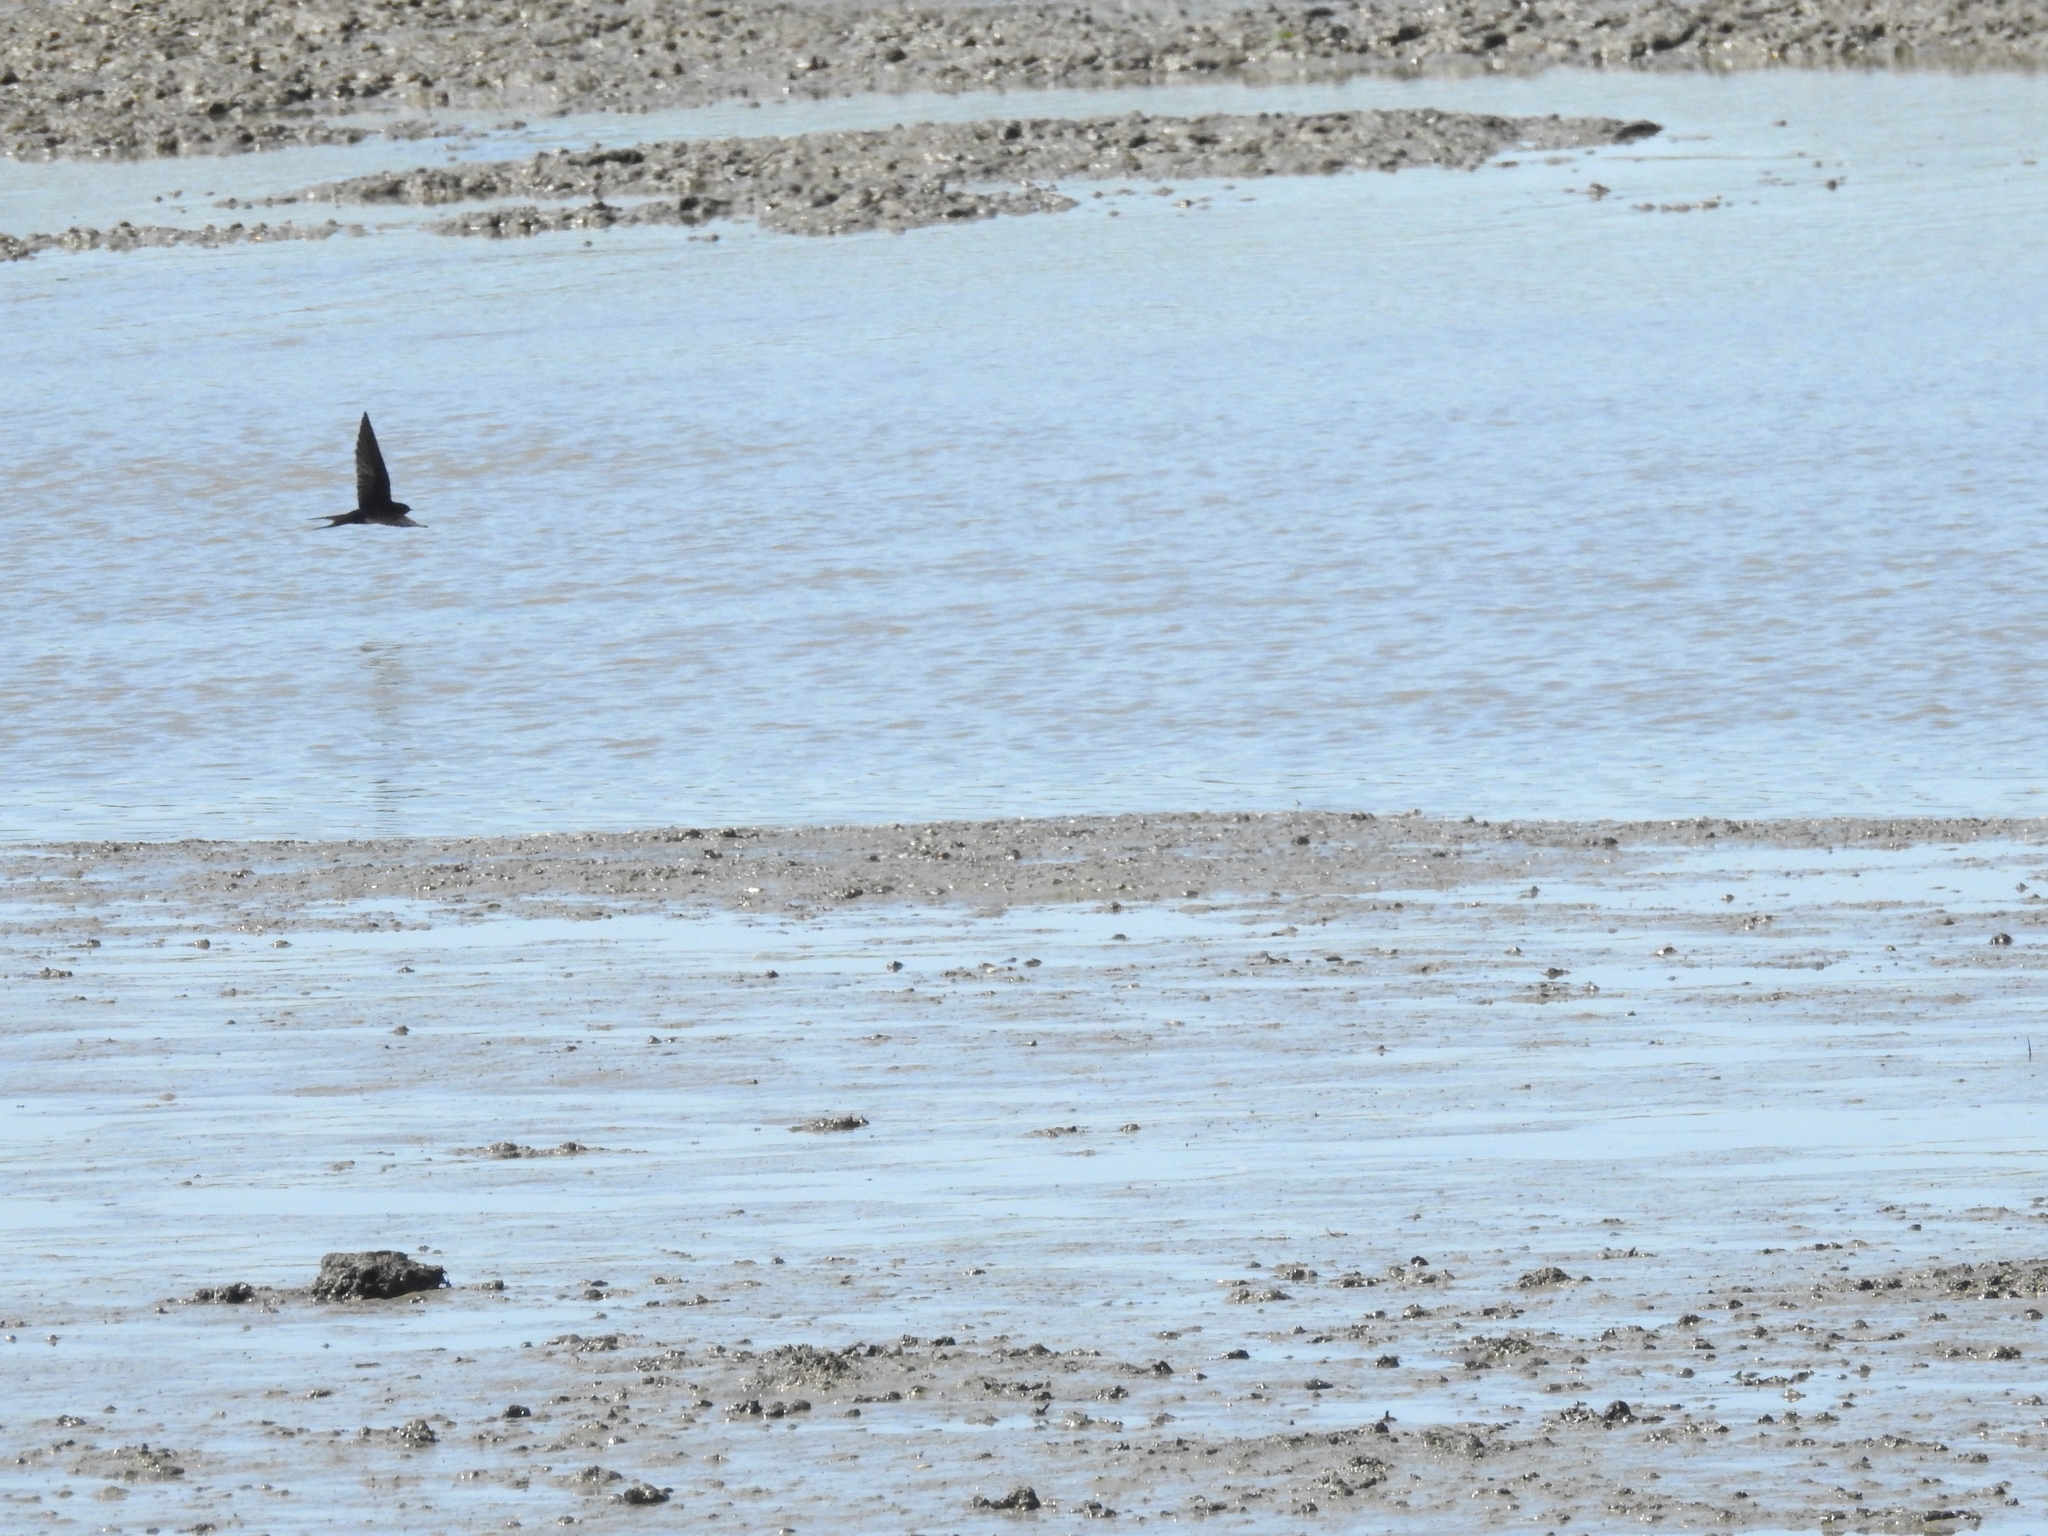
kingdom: Animalia
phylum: Chordata
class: Aves
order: Passeriformes
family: Hirundinidae
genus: Hirundo
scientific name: Hirundo rustica
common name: Barn swallow
